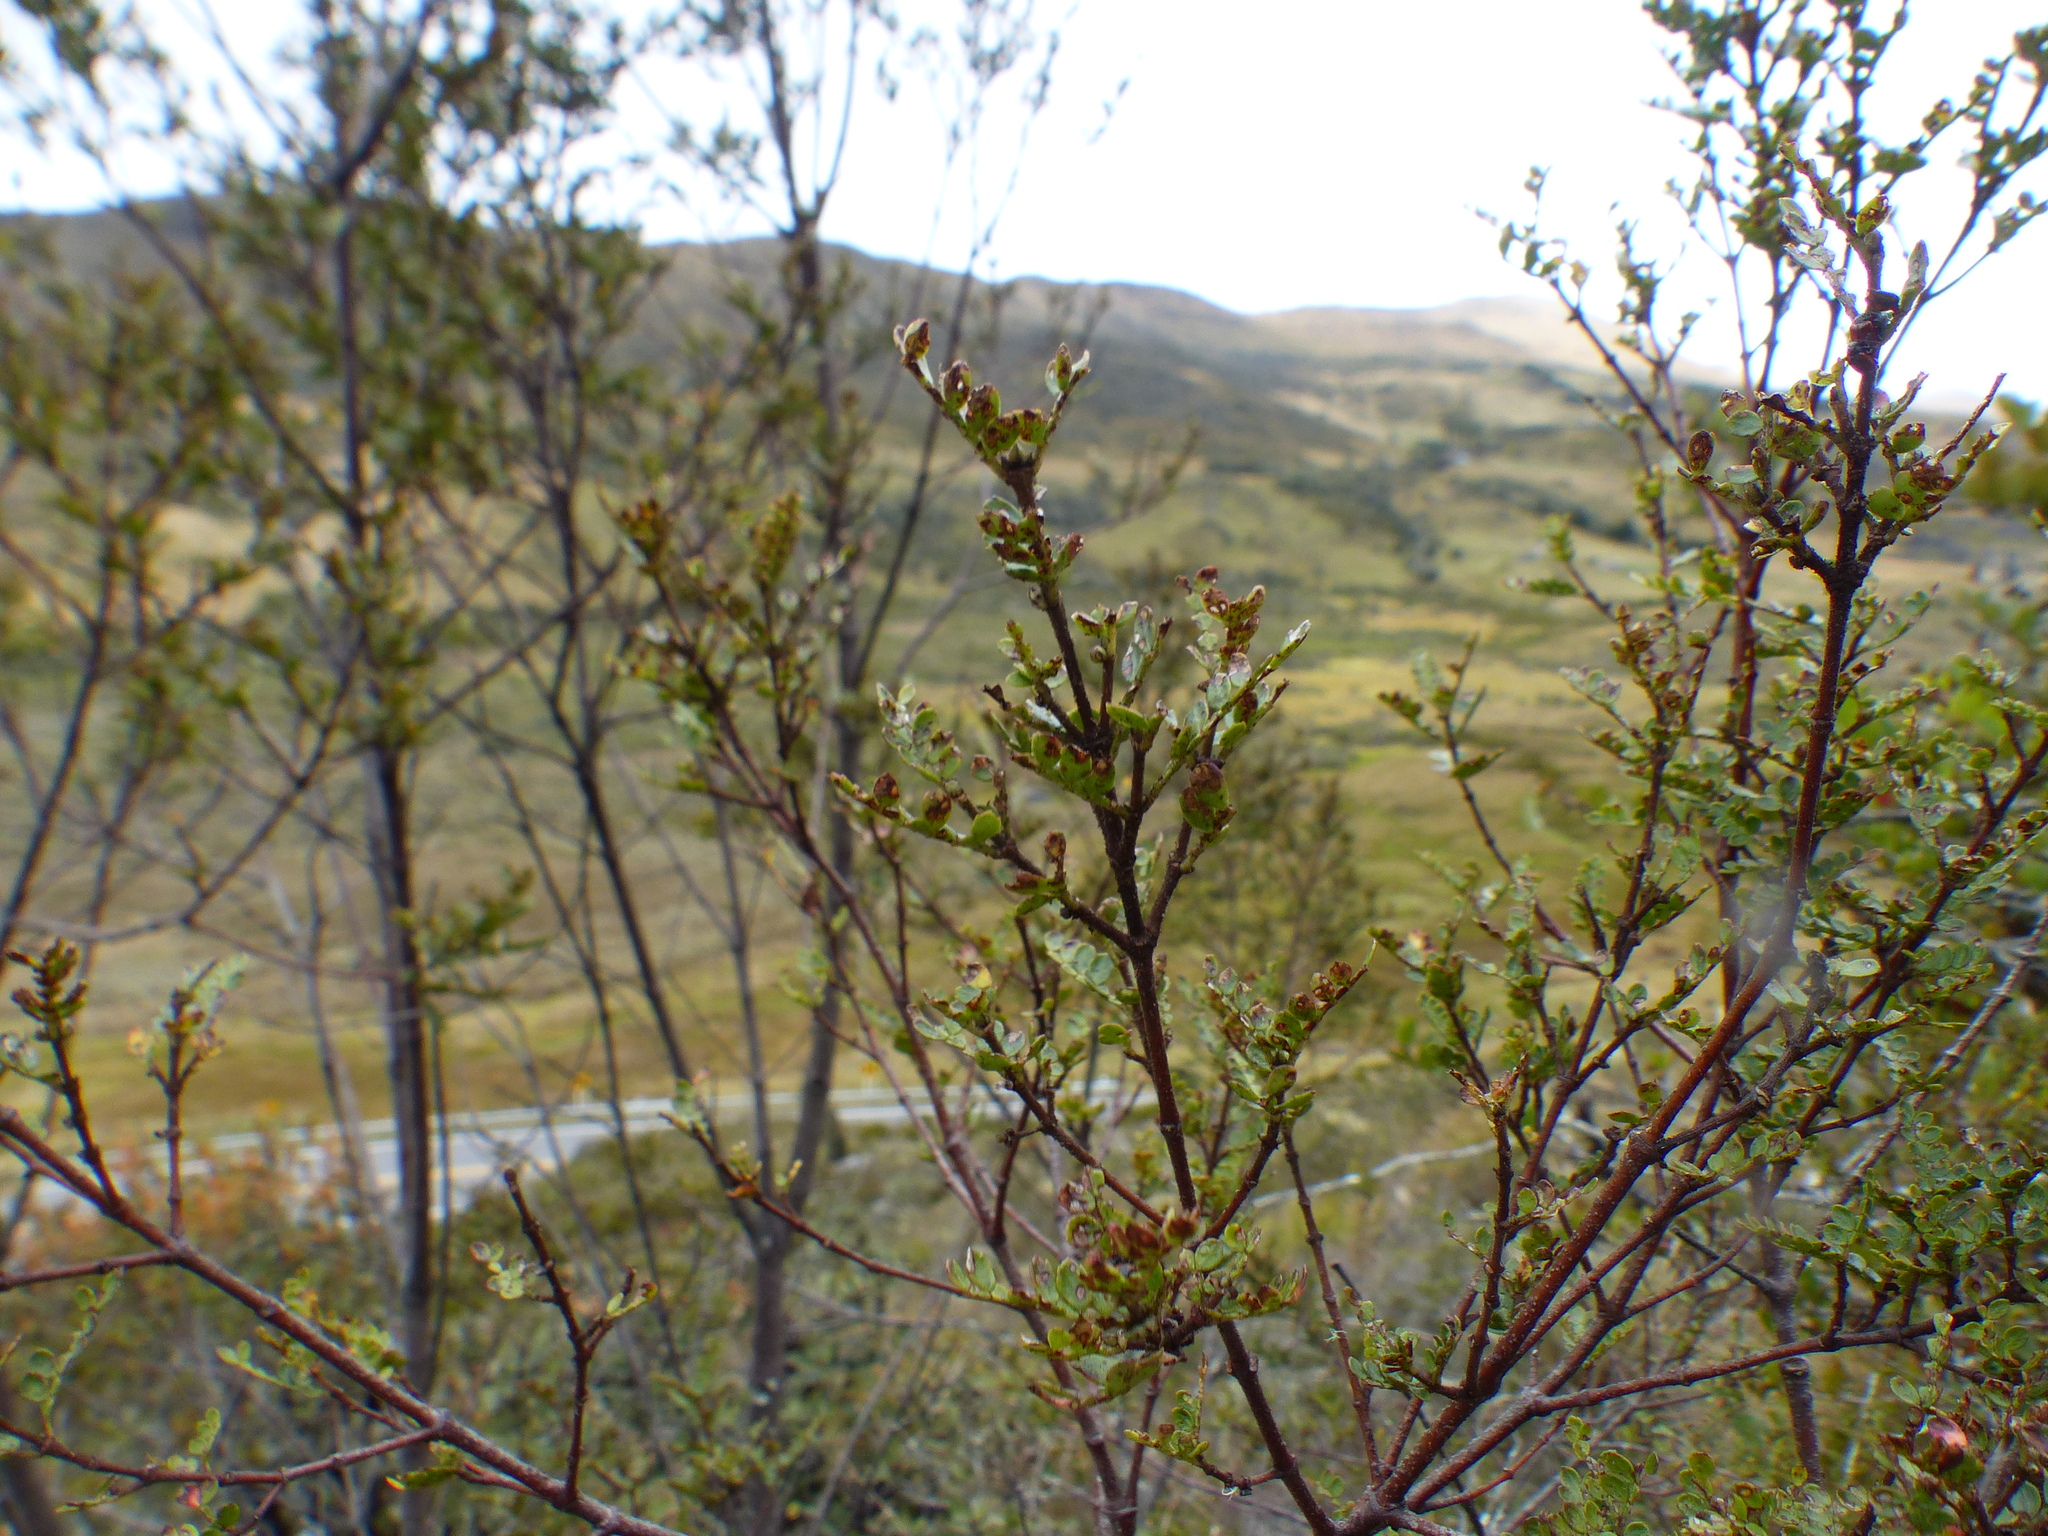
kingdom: Plantae
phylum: Tracheophyta
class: Magnoliopsida
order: Oxalidales
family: Cunoniaceae
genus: Weinmannia
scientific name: Weinmannia fagaroides
